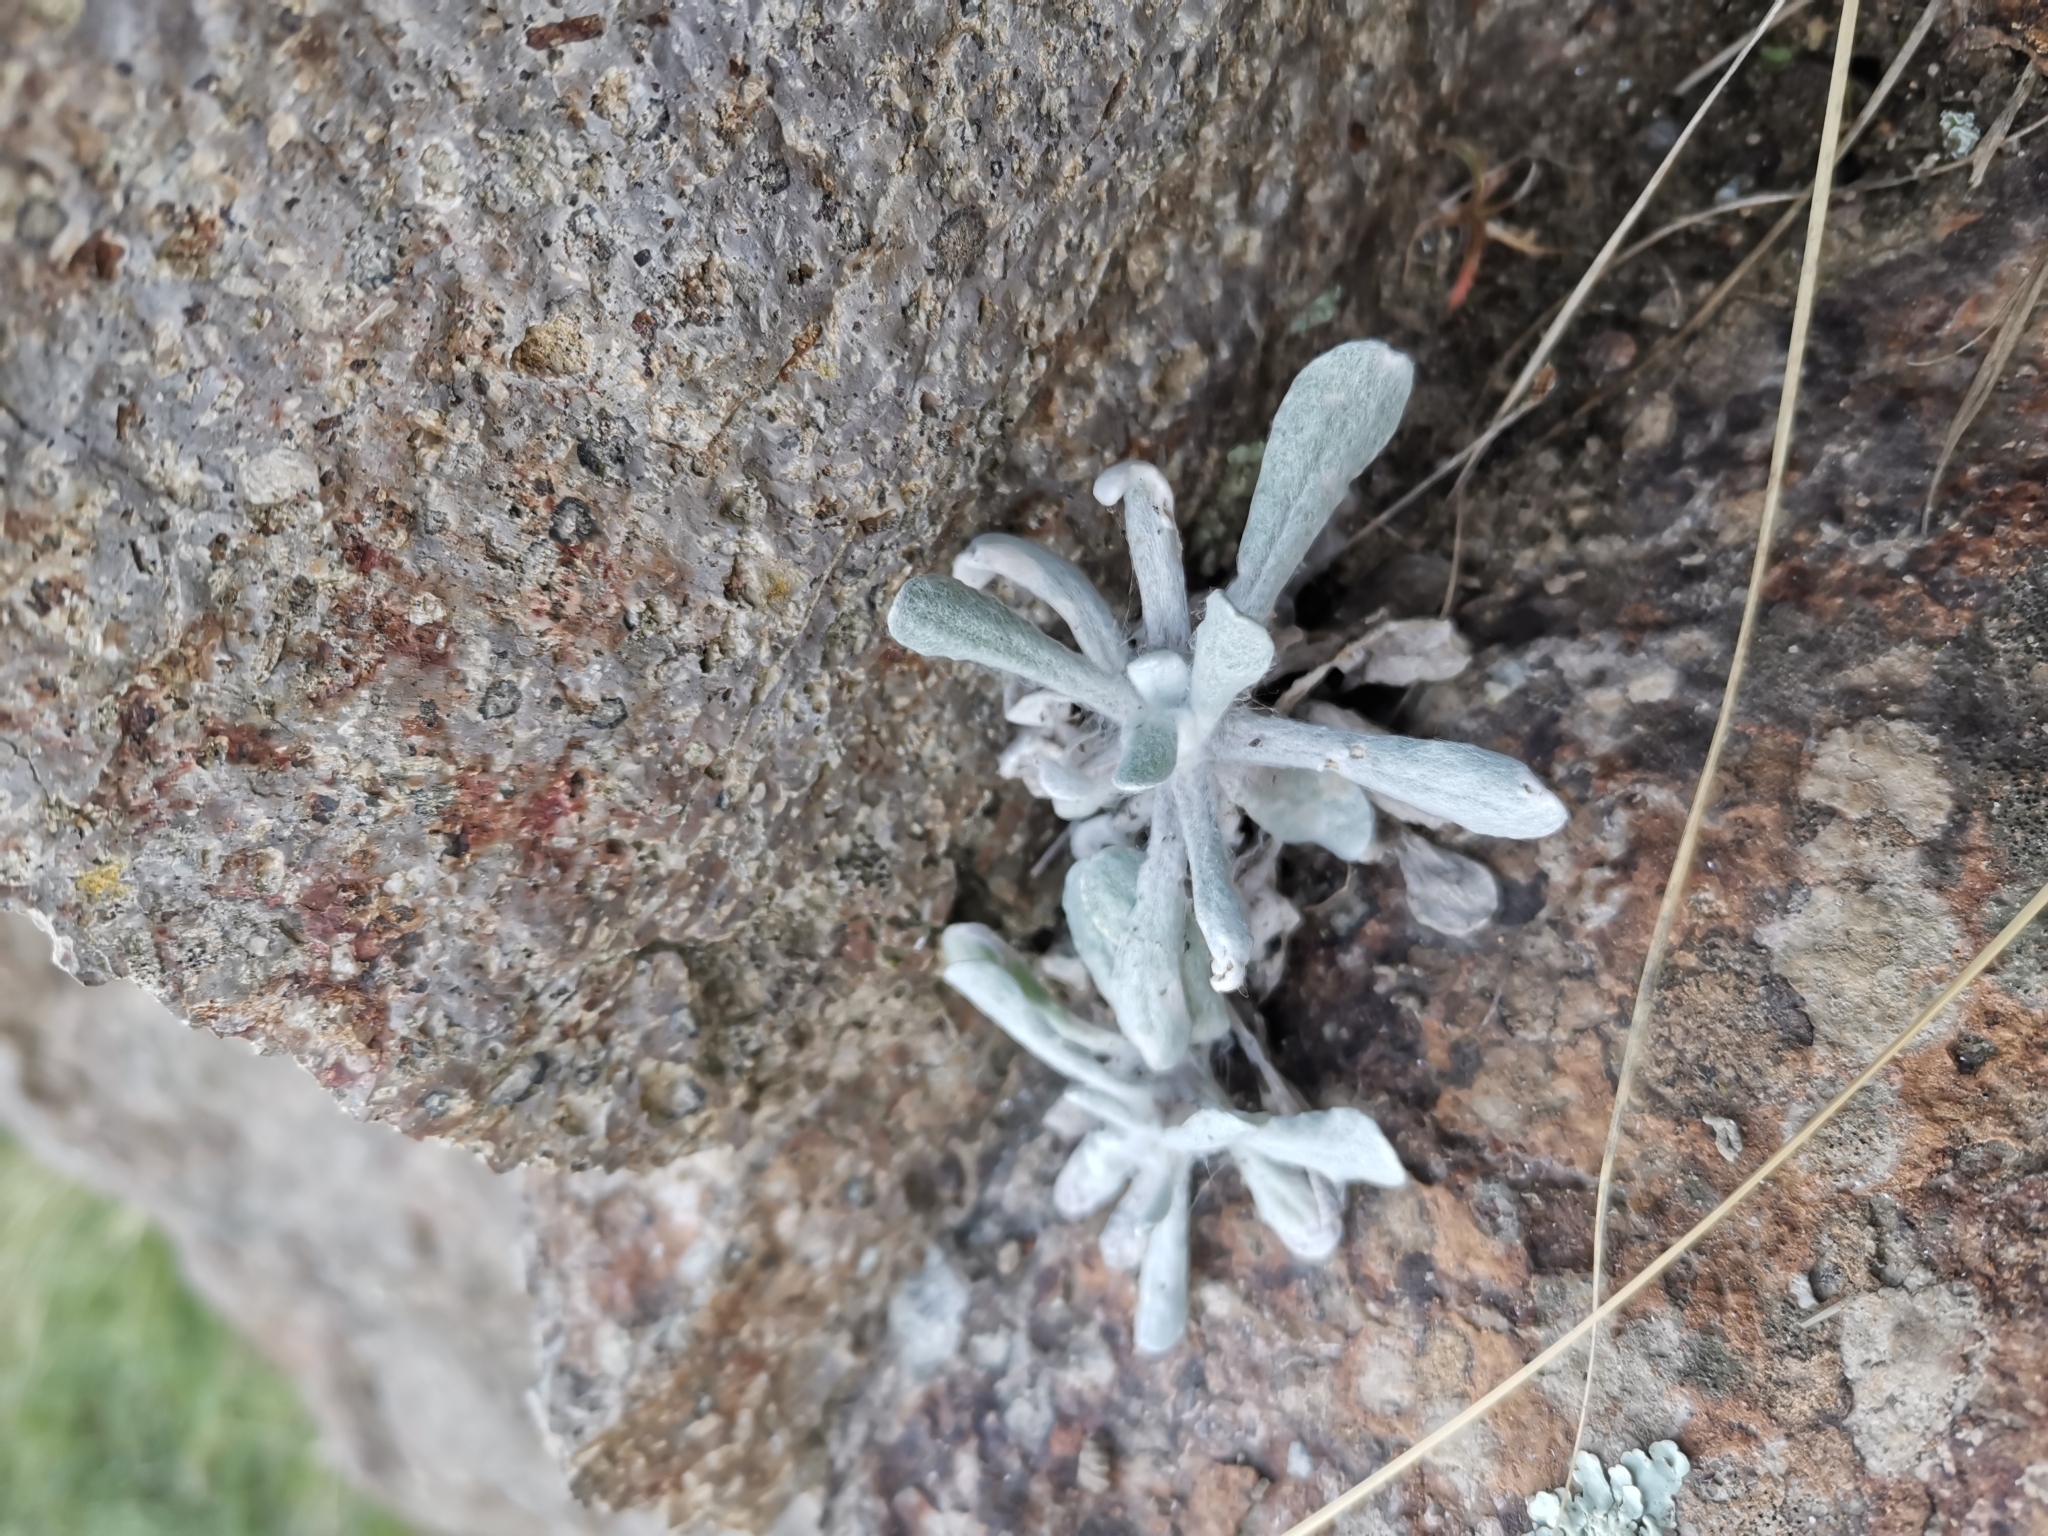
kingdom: Plantae
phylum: Tracheophyta
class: Magnoliopsida
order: Asterales
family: Asteraceae
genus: Helichrysum
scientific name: Helichrysum luteoalbum
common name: Daisy
